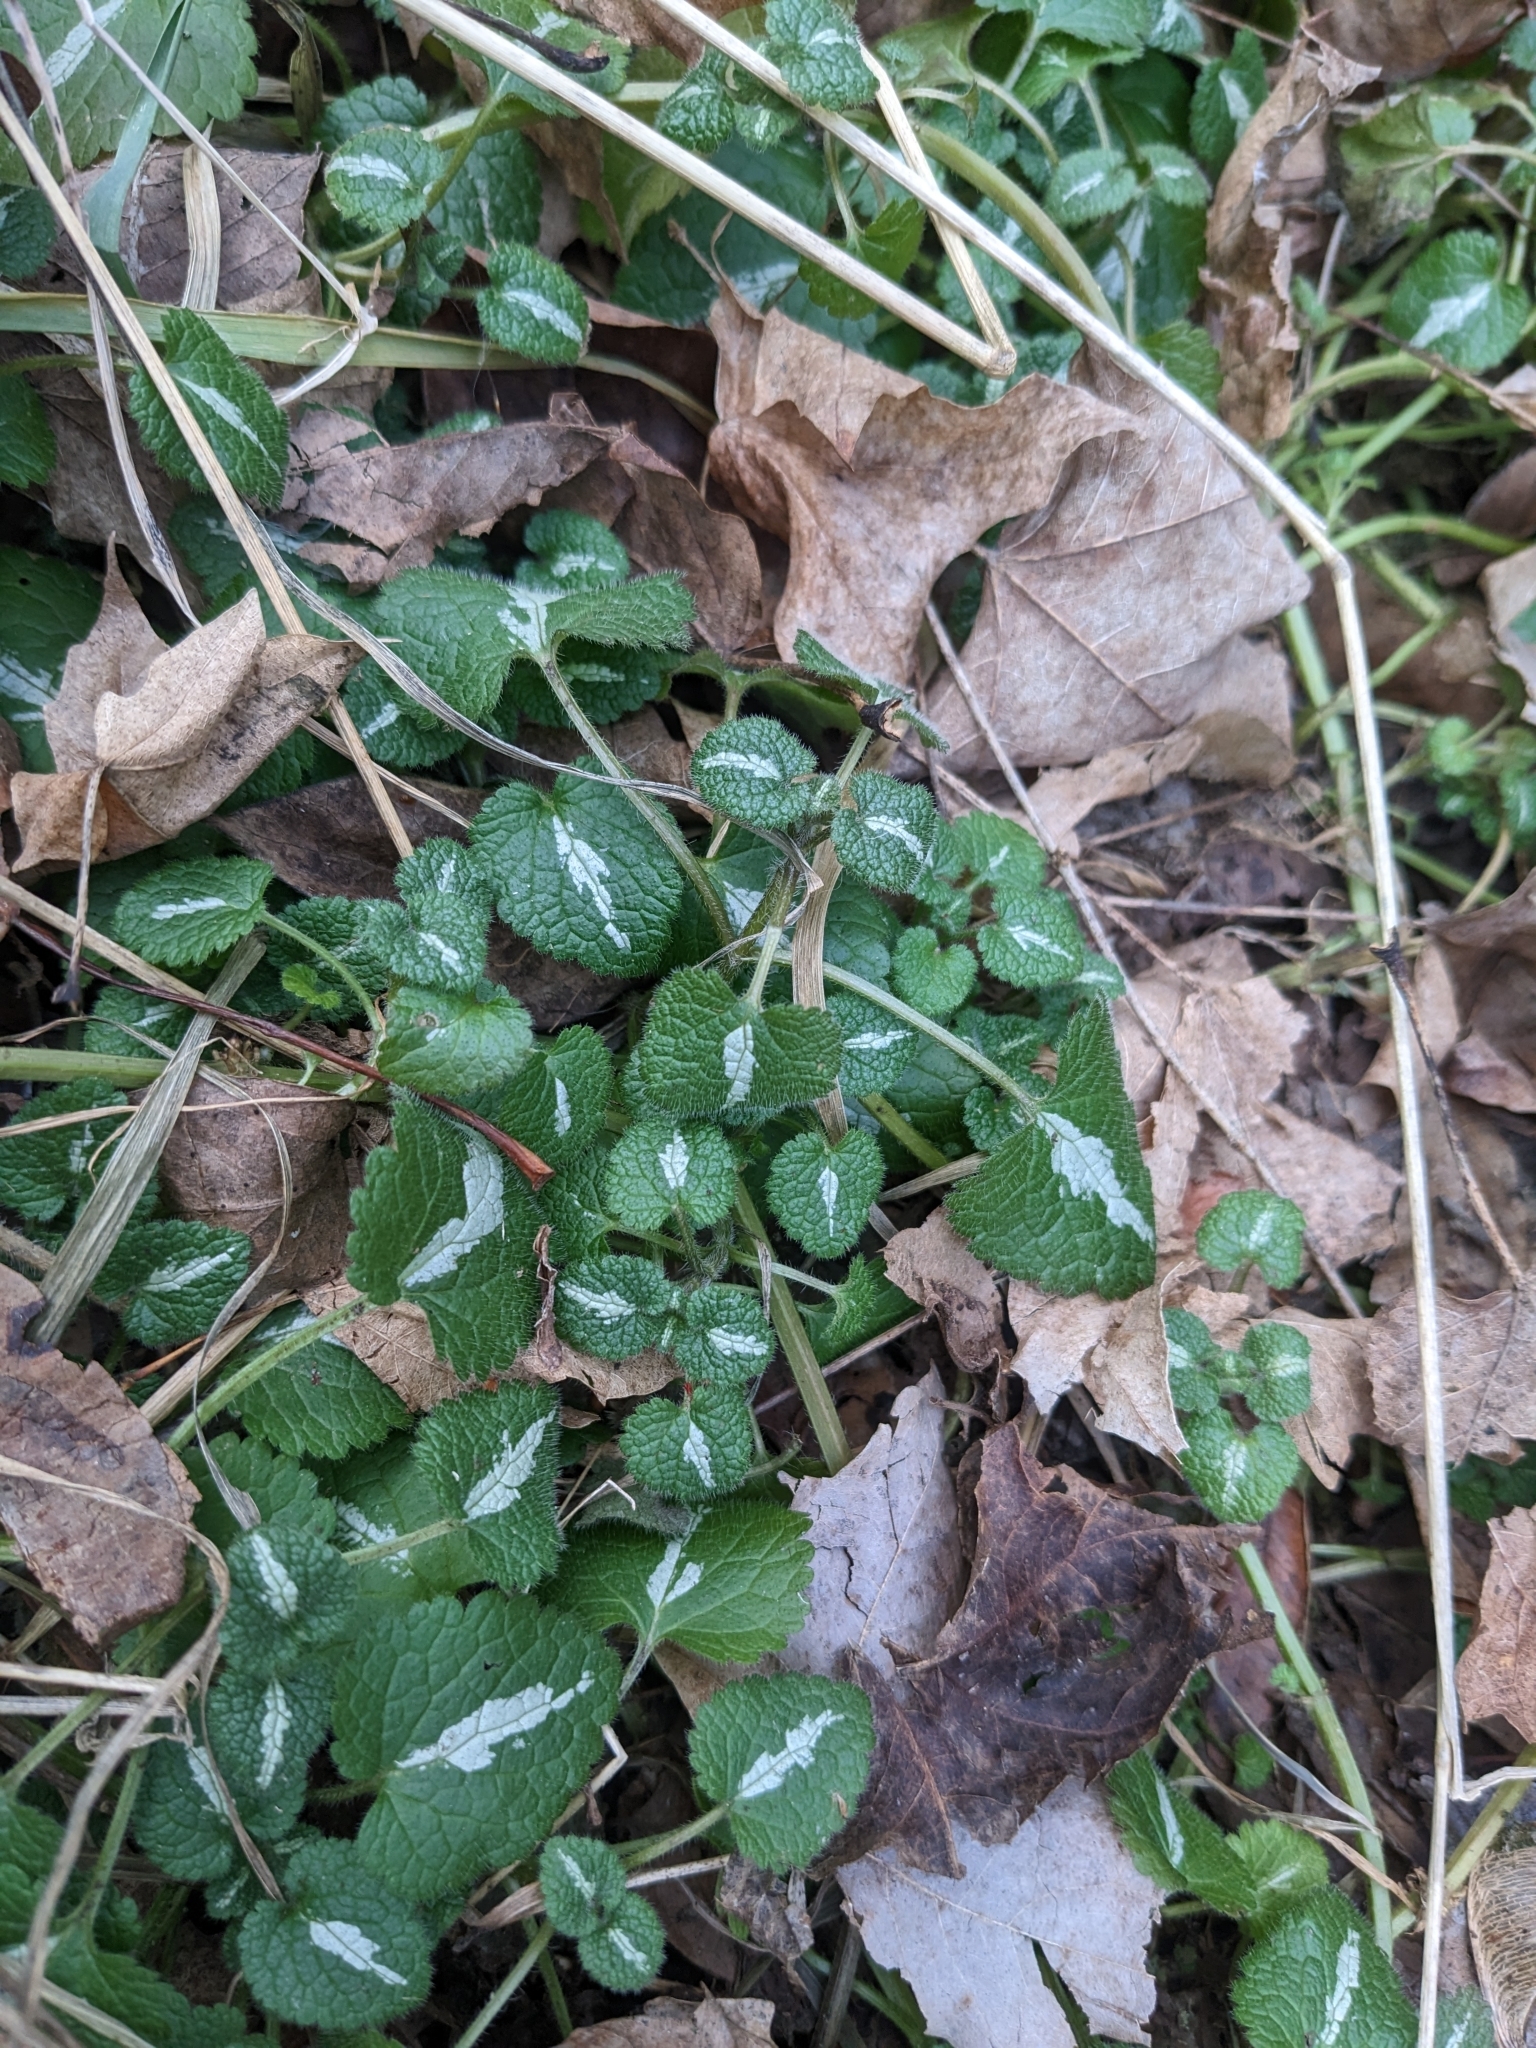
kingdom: Plantae
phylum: Tracheophyta
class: Magnoliopsida
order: Lamiales
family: Lamiaceae
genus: Lamium
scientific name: Lamium maculatum
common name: Spotted dead-nettle
